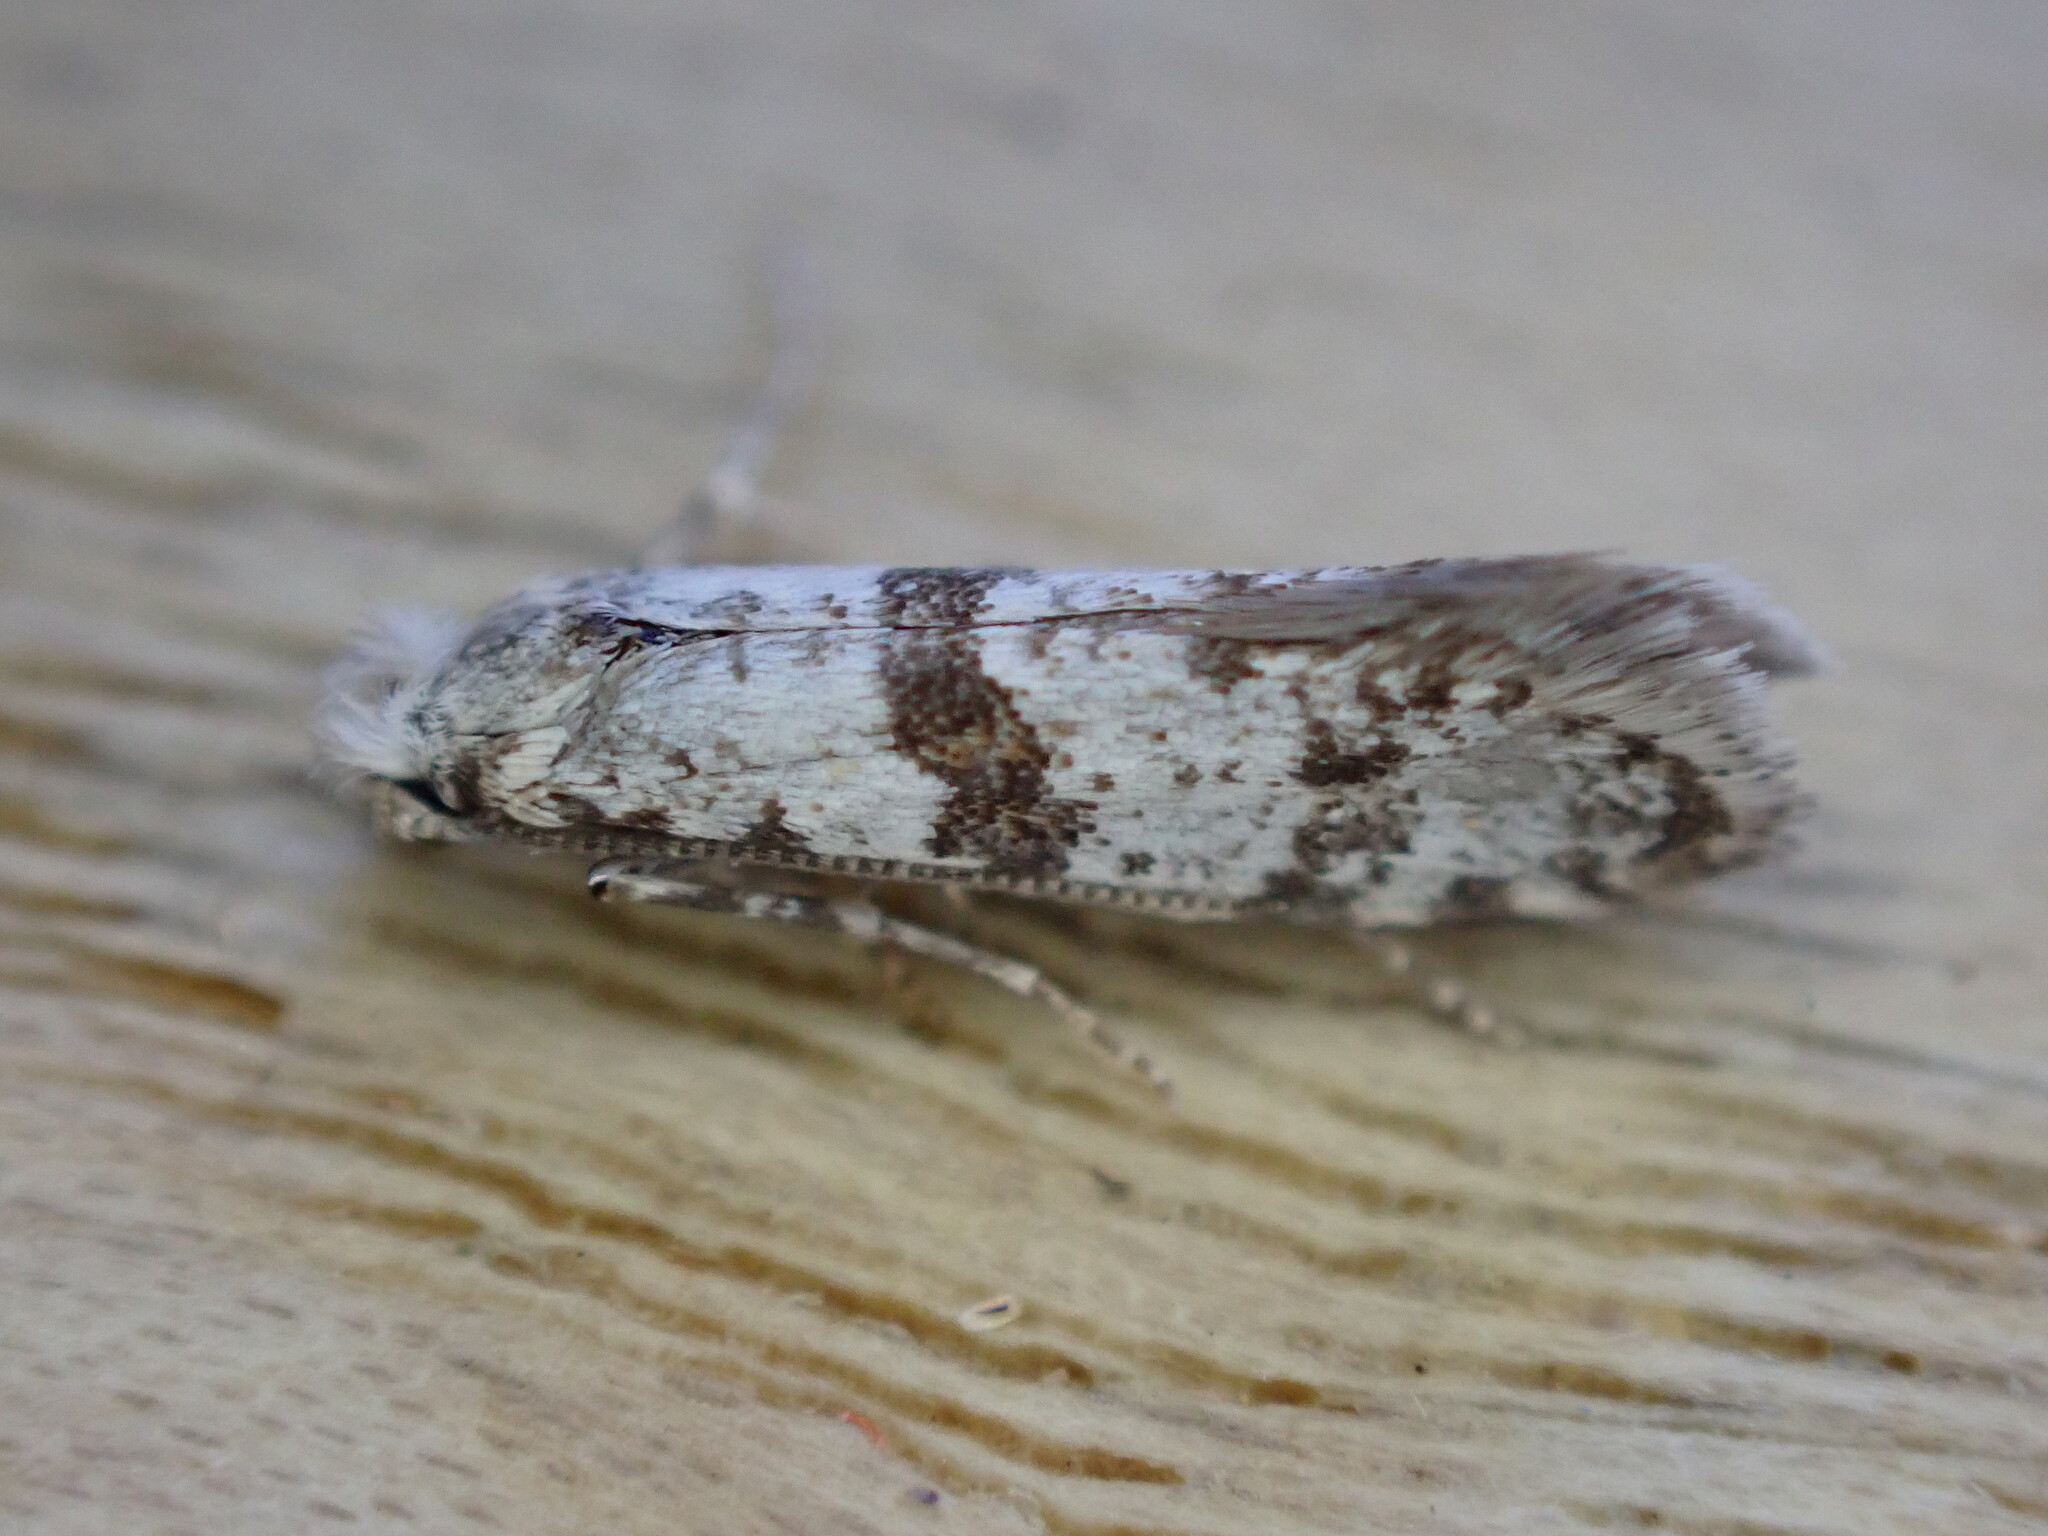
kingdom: Animalia
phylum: Arthropoda
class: Insecta
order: Lepidoptera
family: Yponomeutidae
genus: Scythropia
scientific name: Scythropia crataegella
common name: Hawthorn moth
